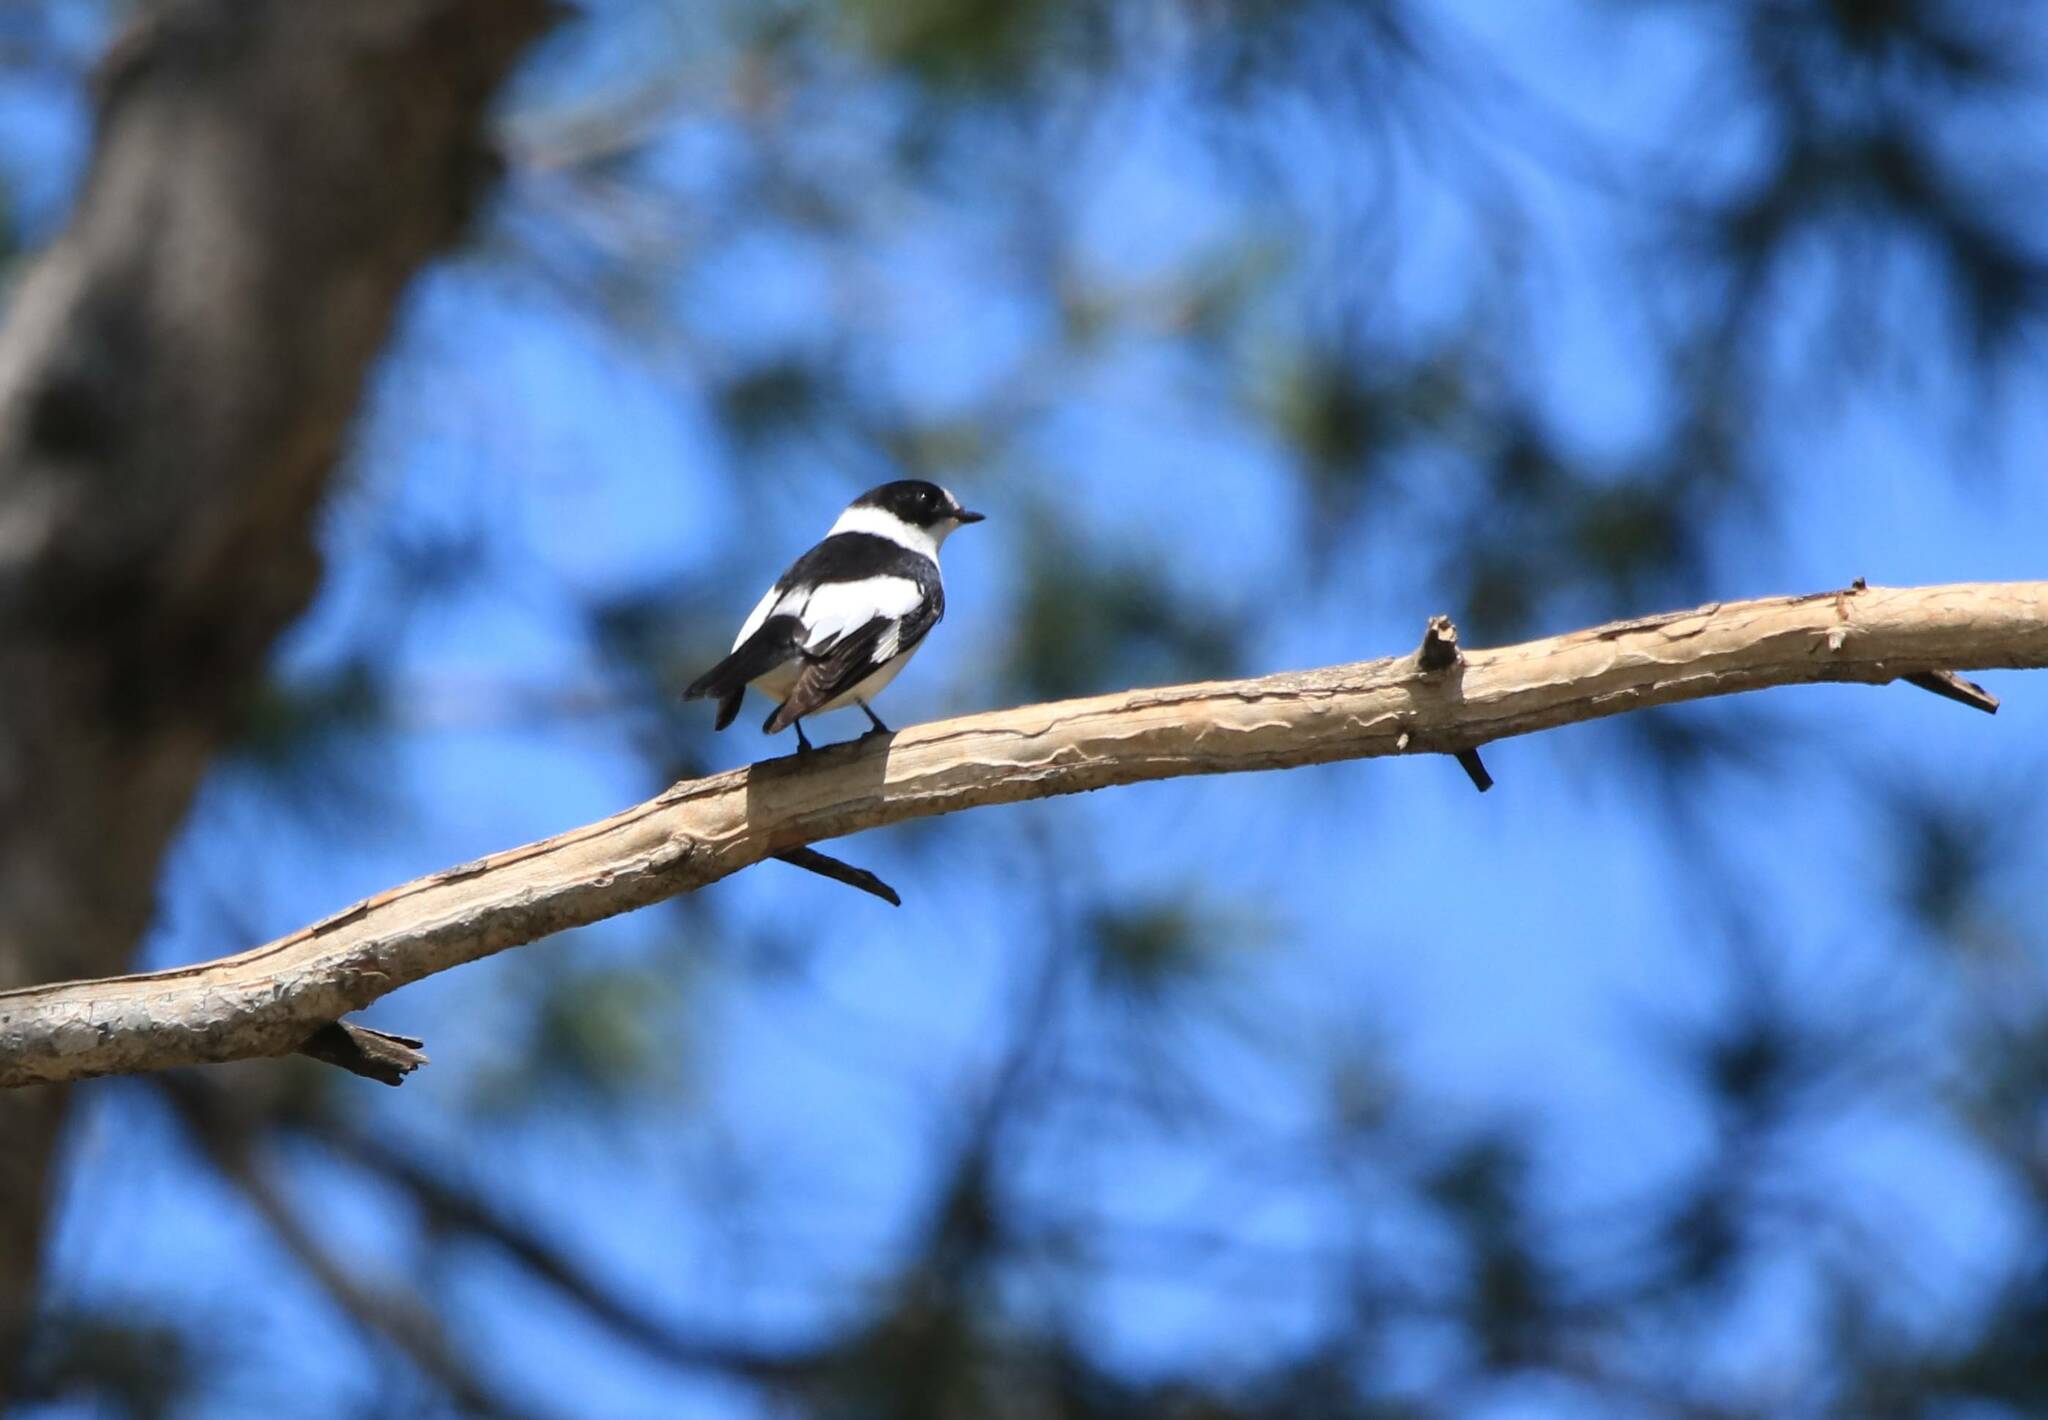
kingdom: Animalia
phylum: Chordata
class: Aves
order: Passeriformes
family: Muscicapidae
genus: Ficedula
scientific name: Ficedula albicollis
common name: Collared flycatcher
